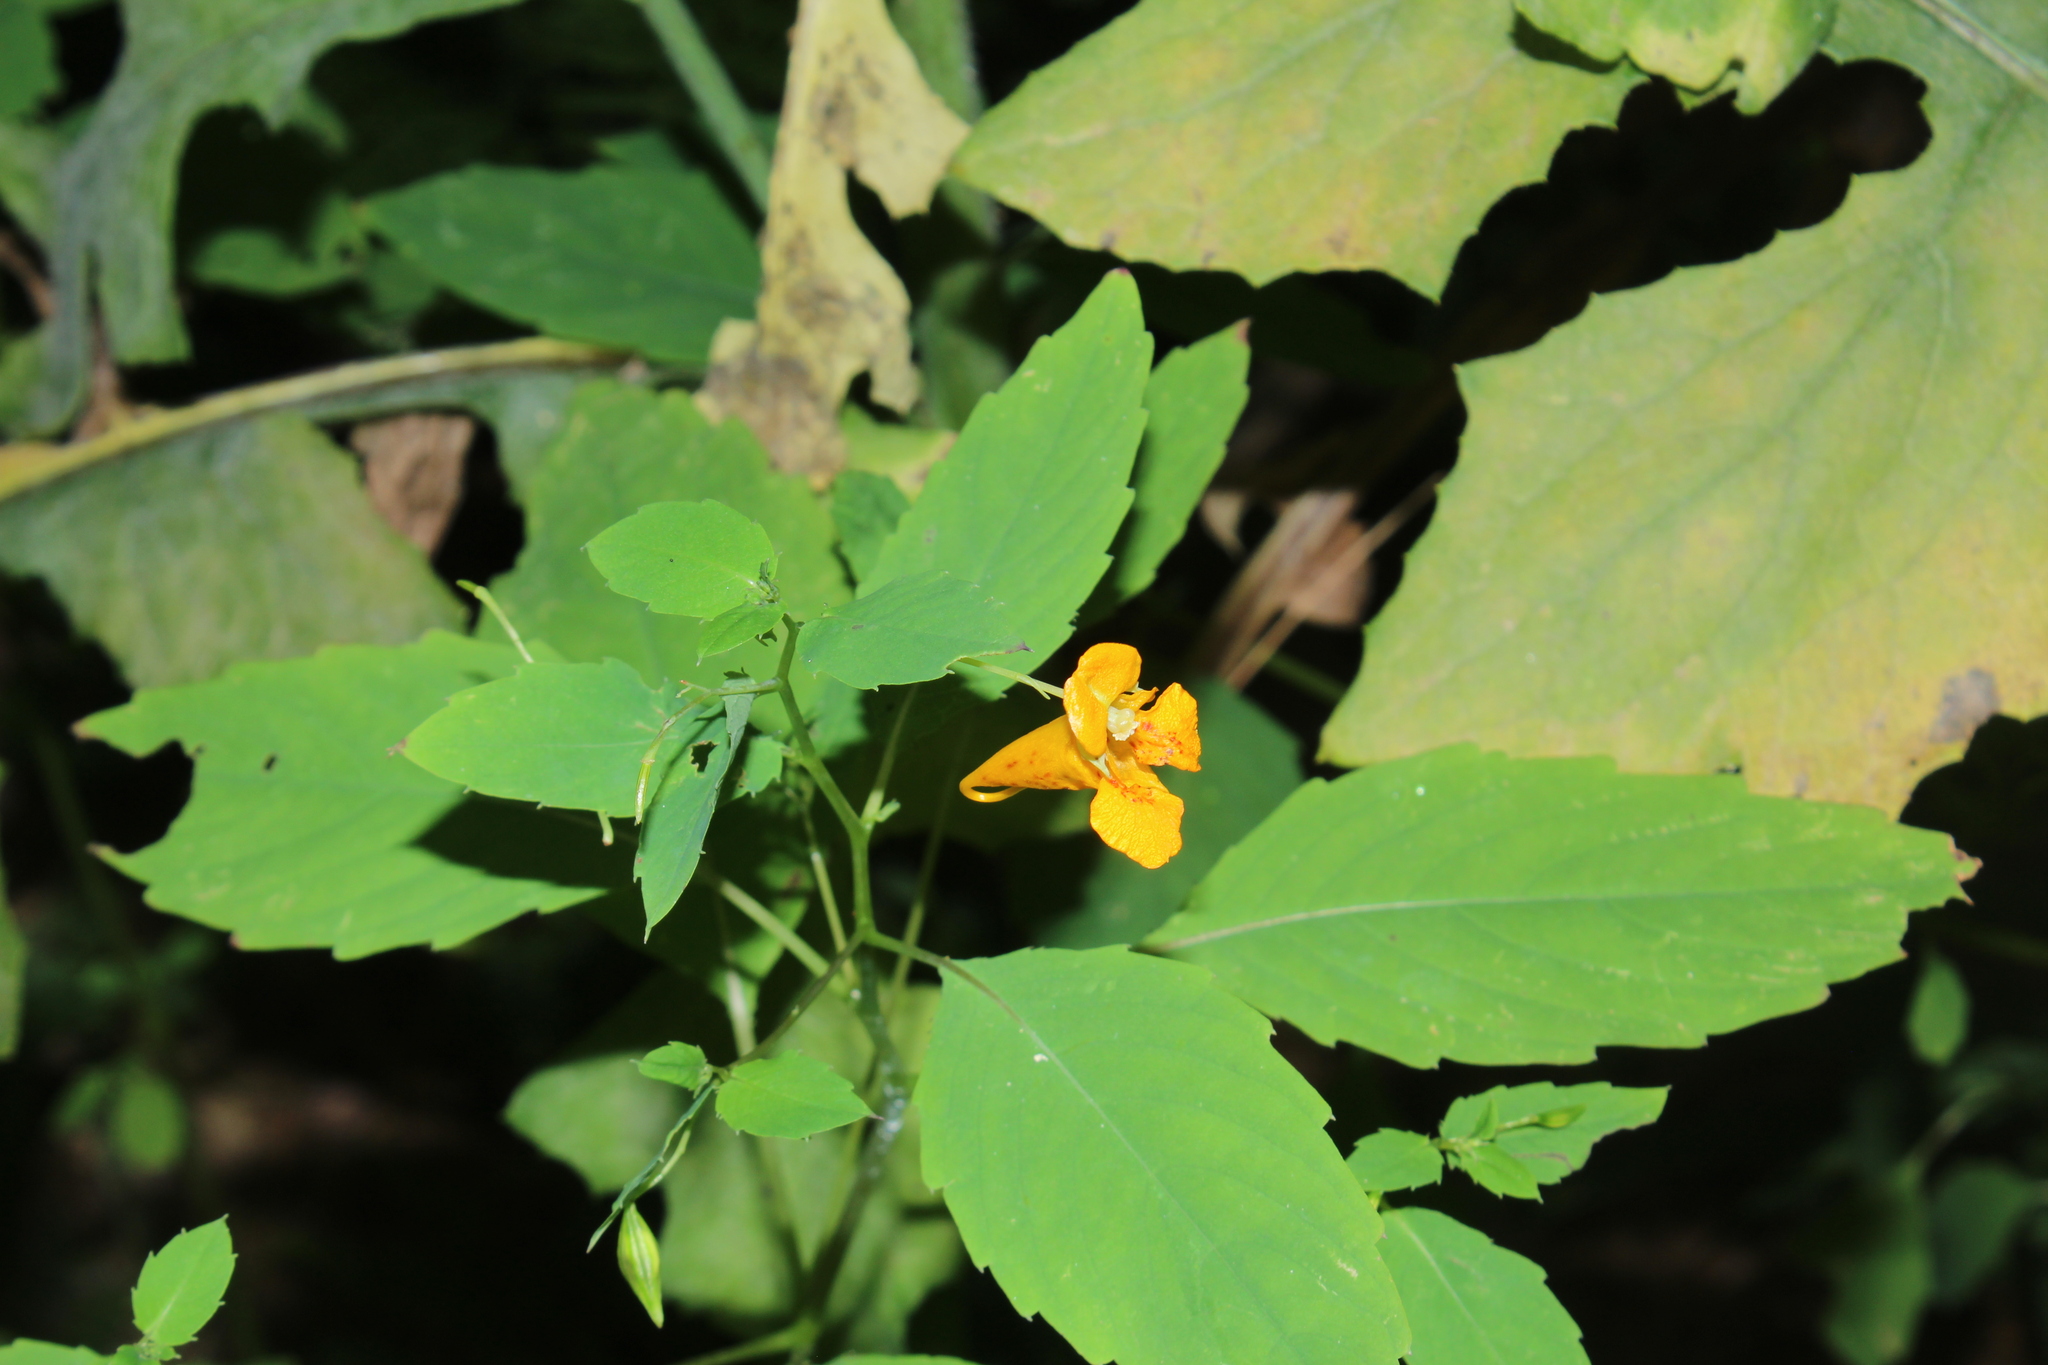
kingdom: Plantae
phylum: Tracheophyta
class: Magnoliopsida
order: Ericales
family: Balsaminaceae
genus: Impatiens
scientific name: Impatiens capensis
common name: Orange balsam
